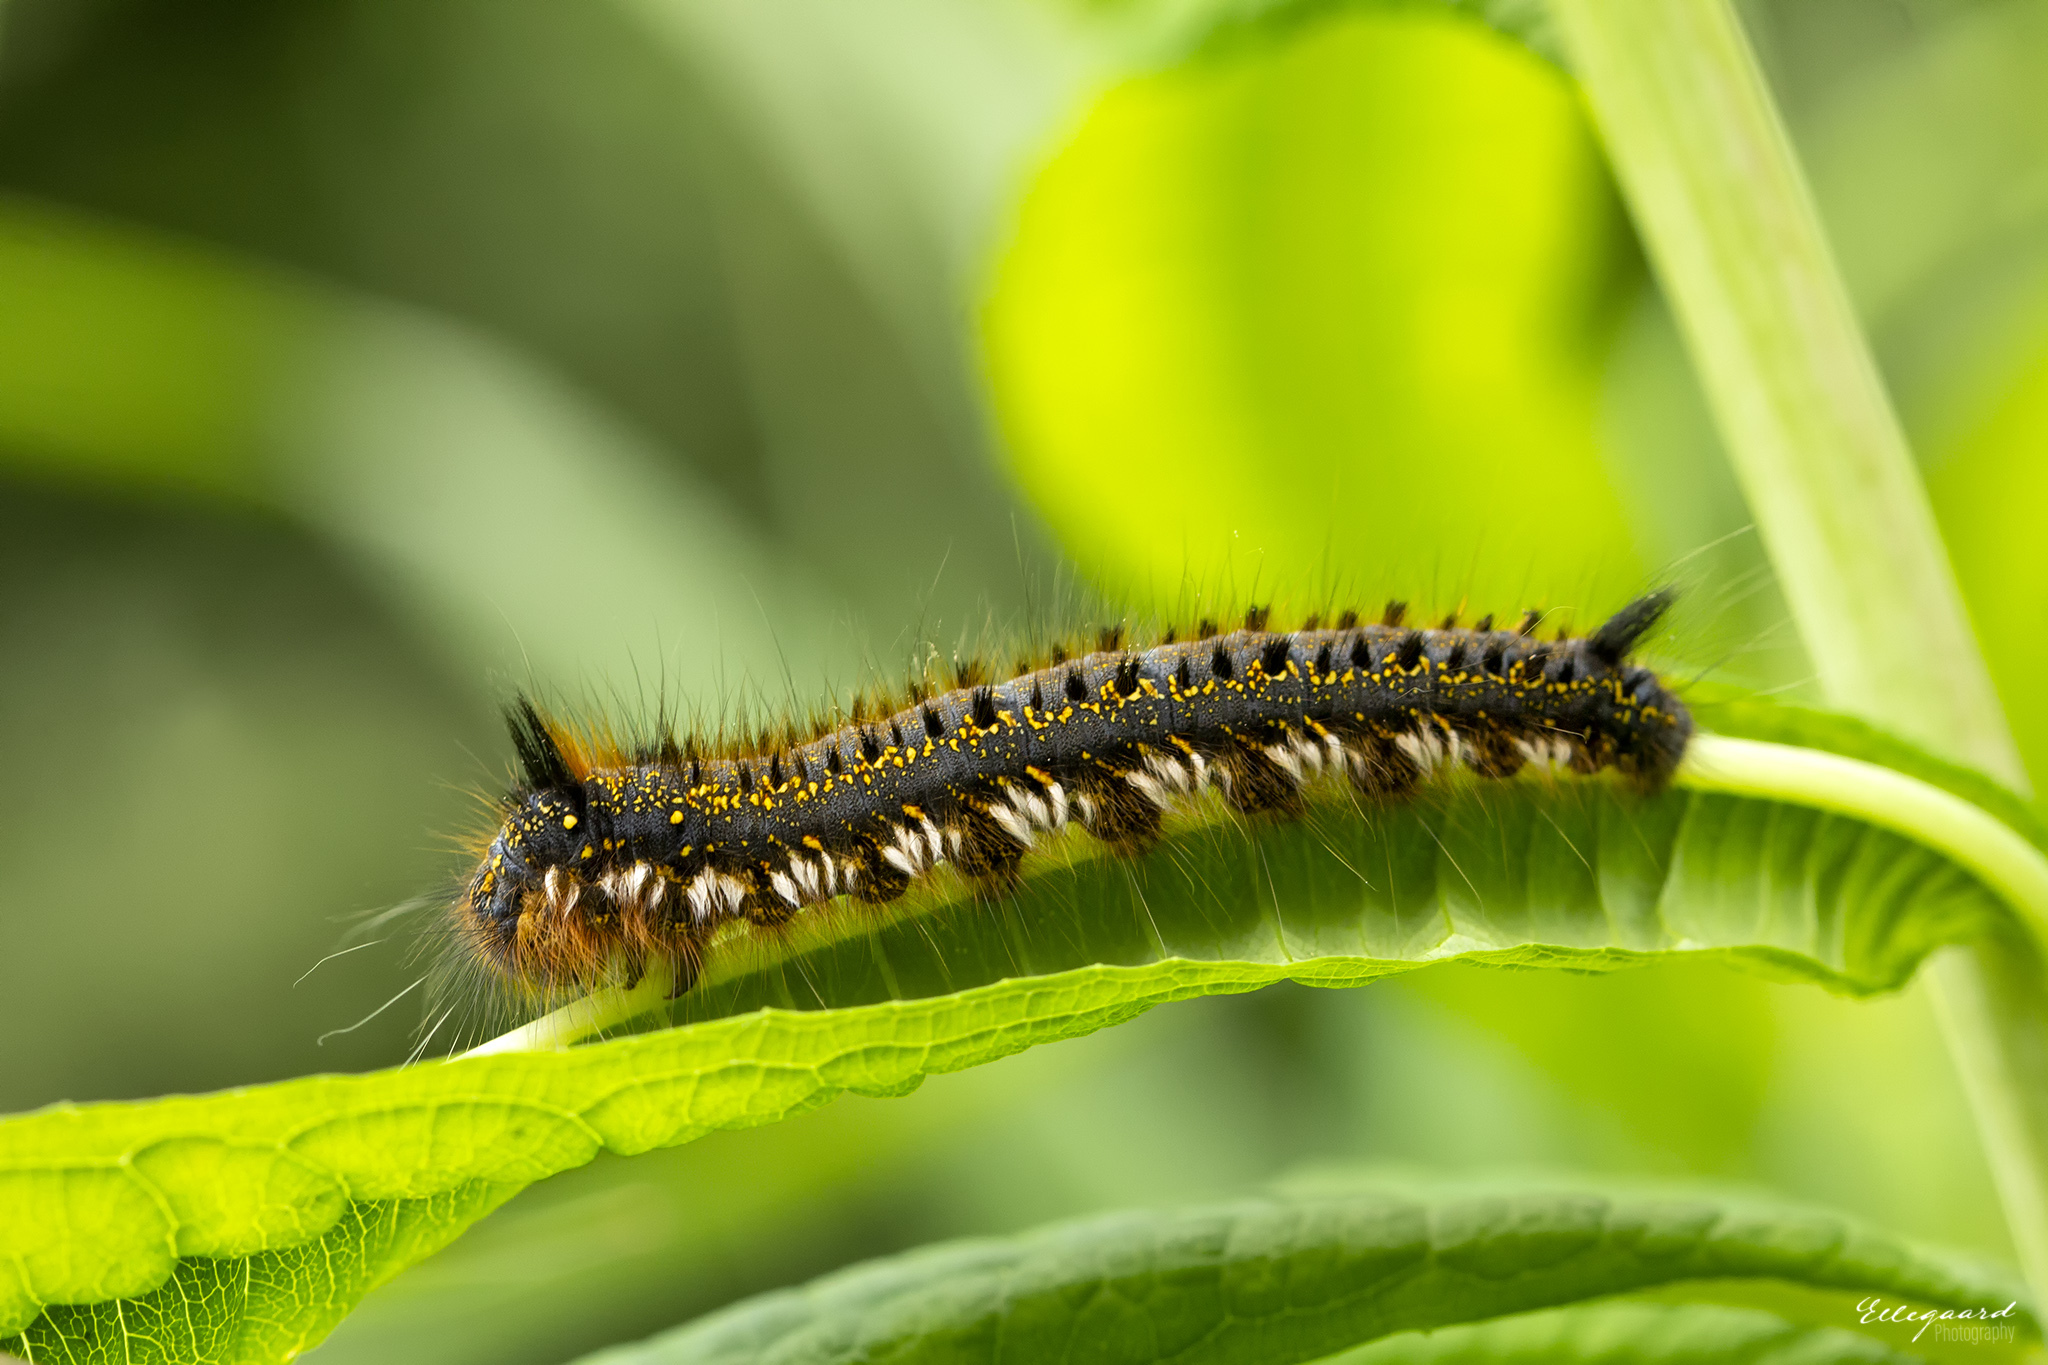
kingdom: Animalia
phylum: Arthropoda
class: Insecta
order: Lepidoptera
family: Lasiocampidae
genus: Euthrix
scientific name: Euthrix potatoria
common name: Drinker
